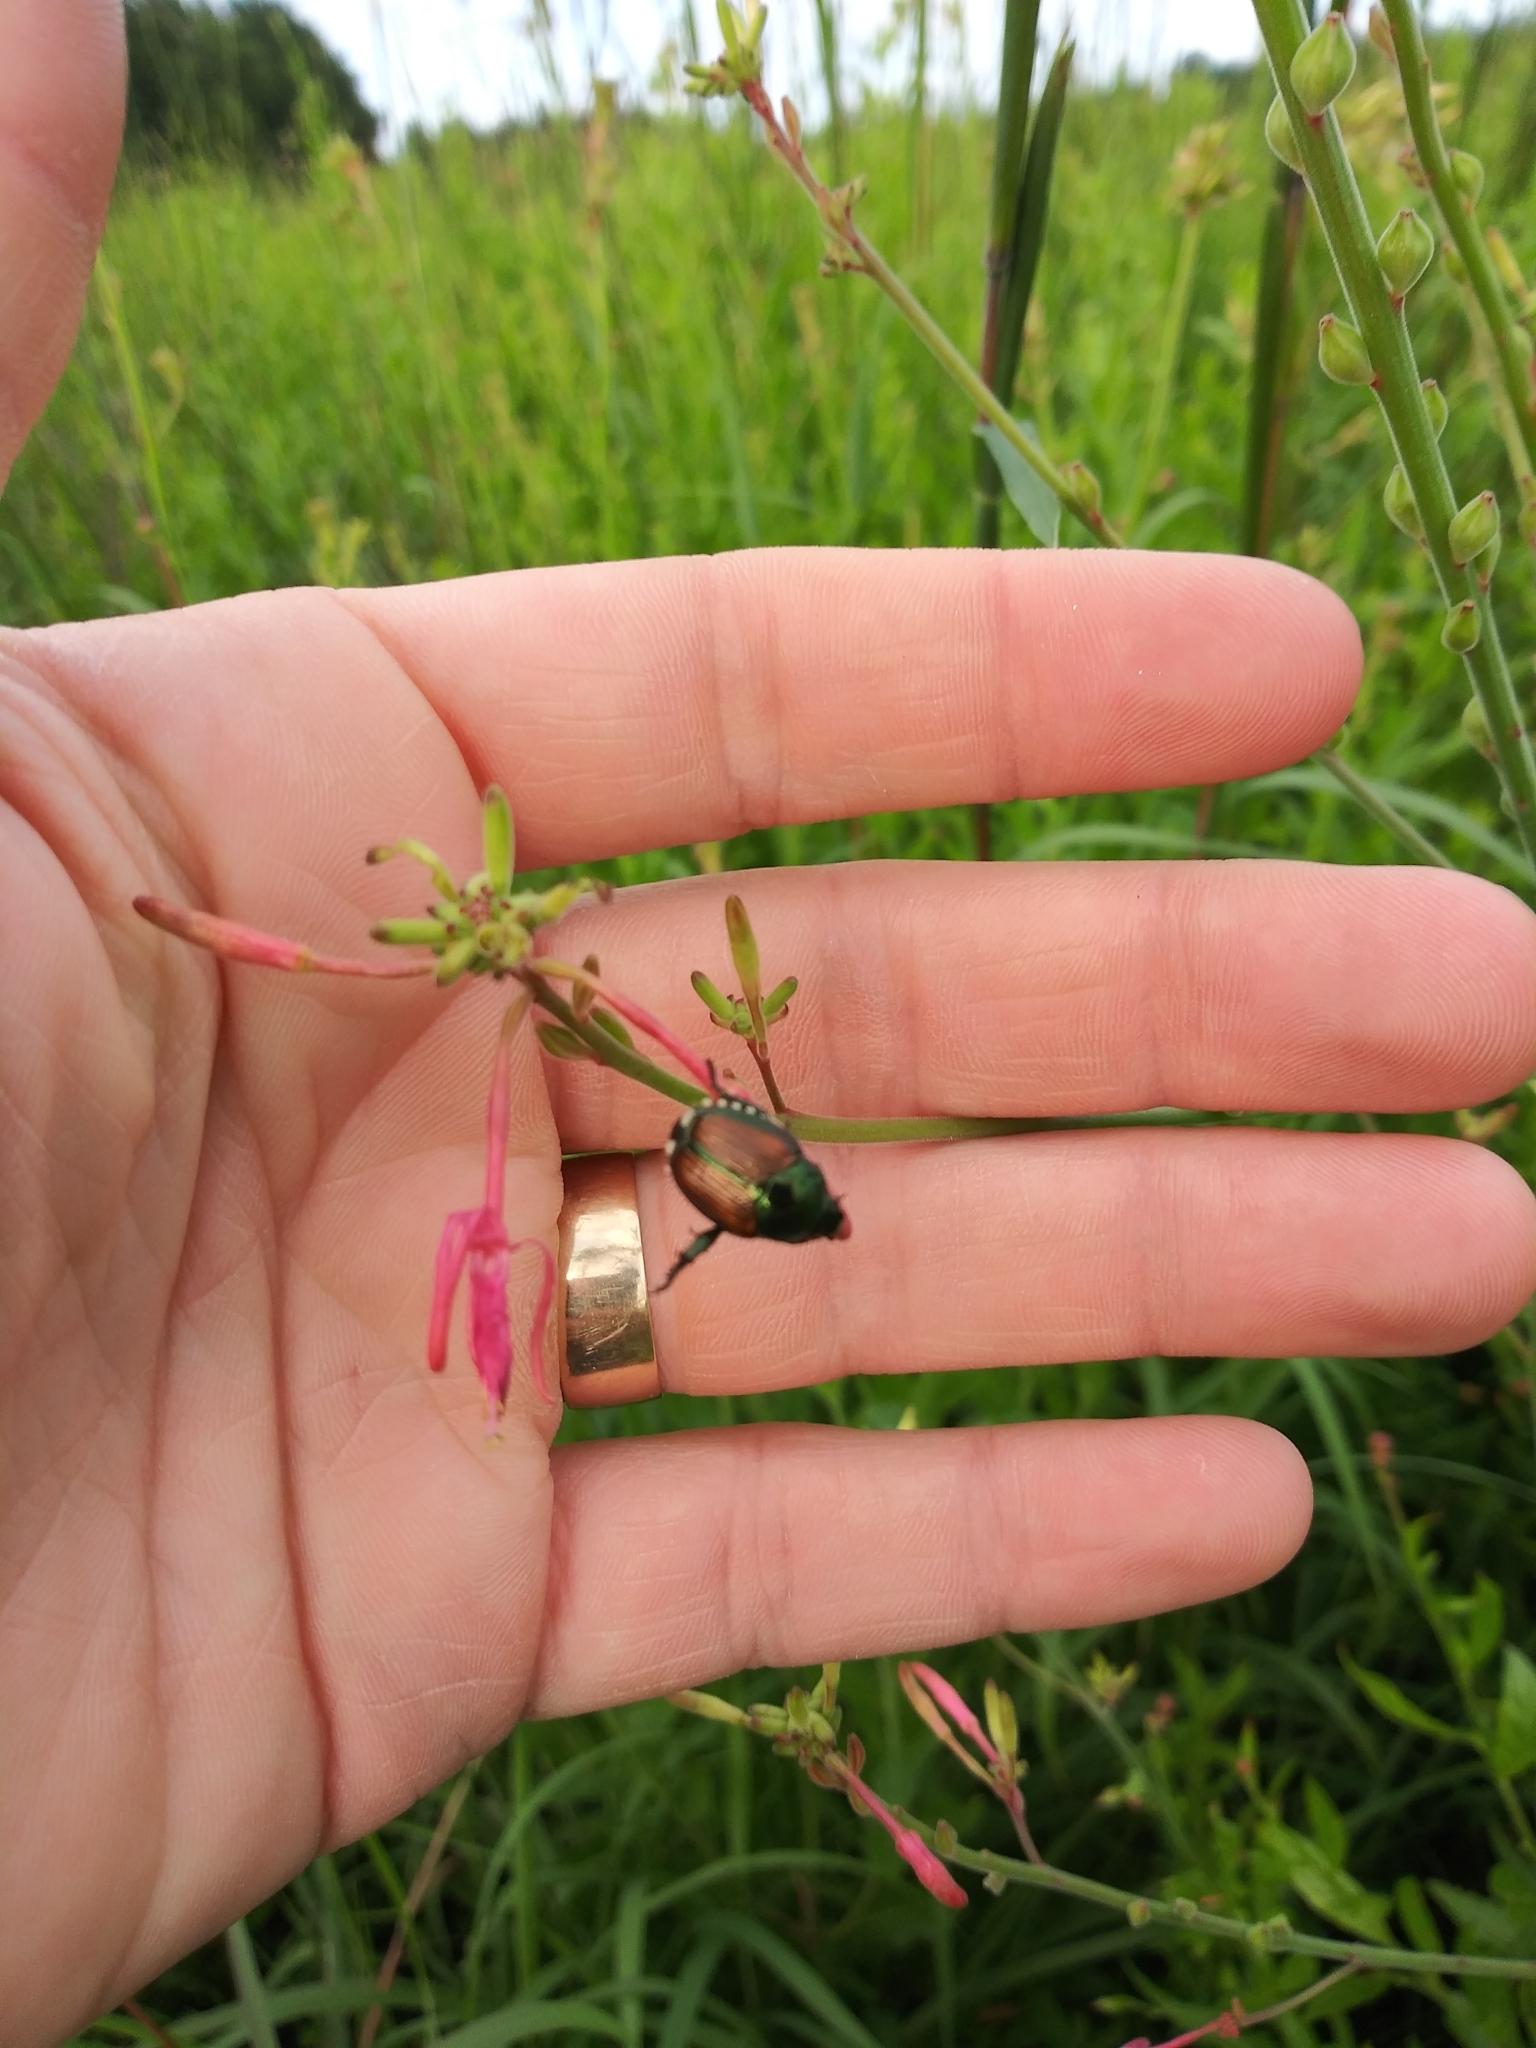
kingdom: Animalia
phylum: Arthropoda
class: Insecta
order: Coleoptera
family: Scarabaeidae
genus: Popillia
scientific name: Popillia japonica
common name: Japanese beetle
